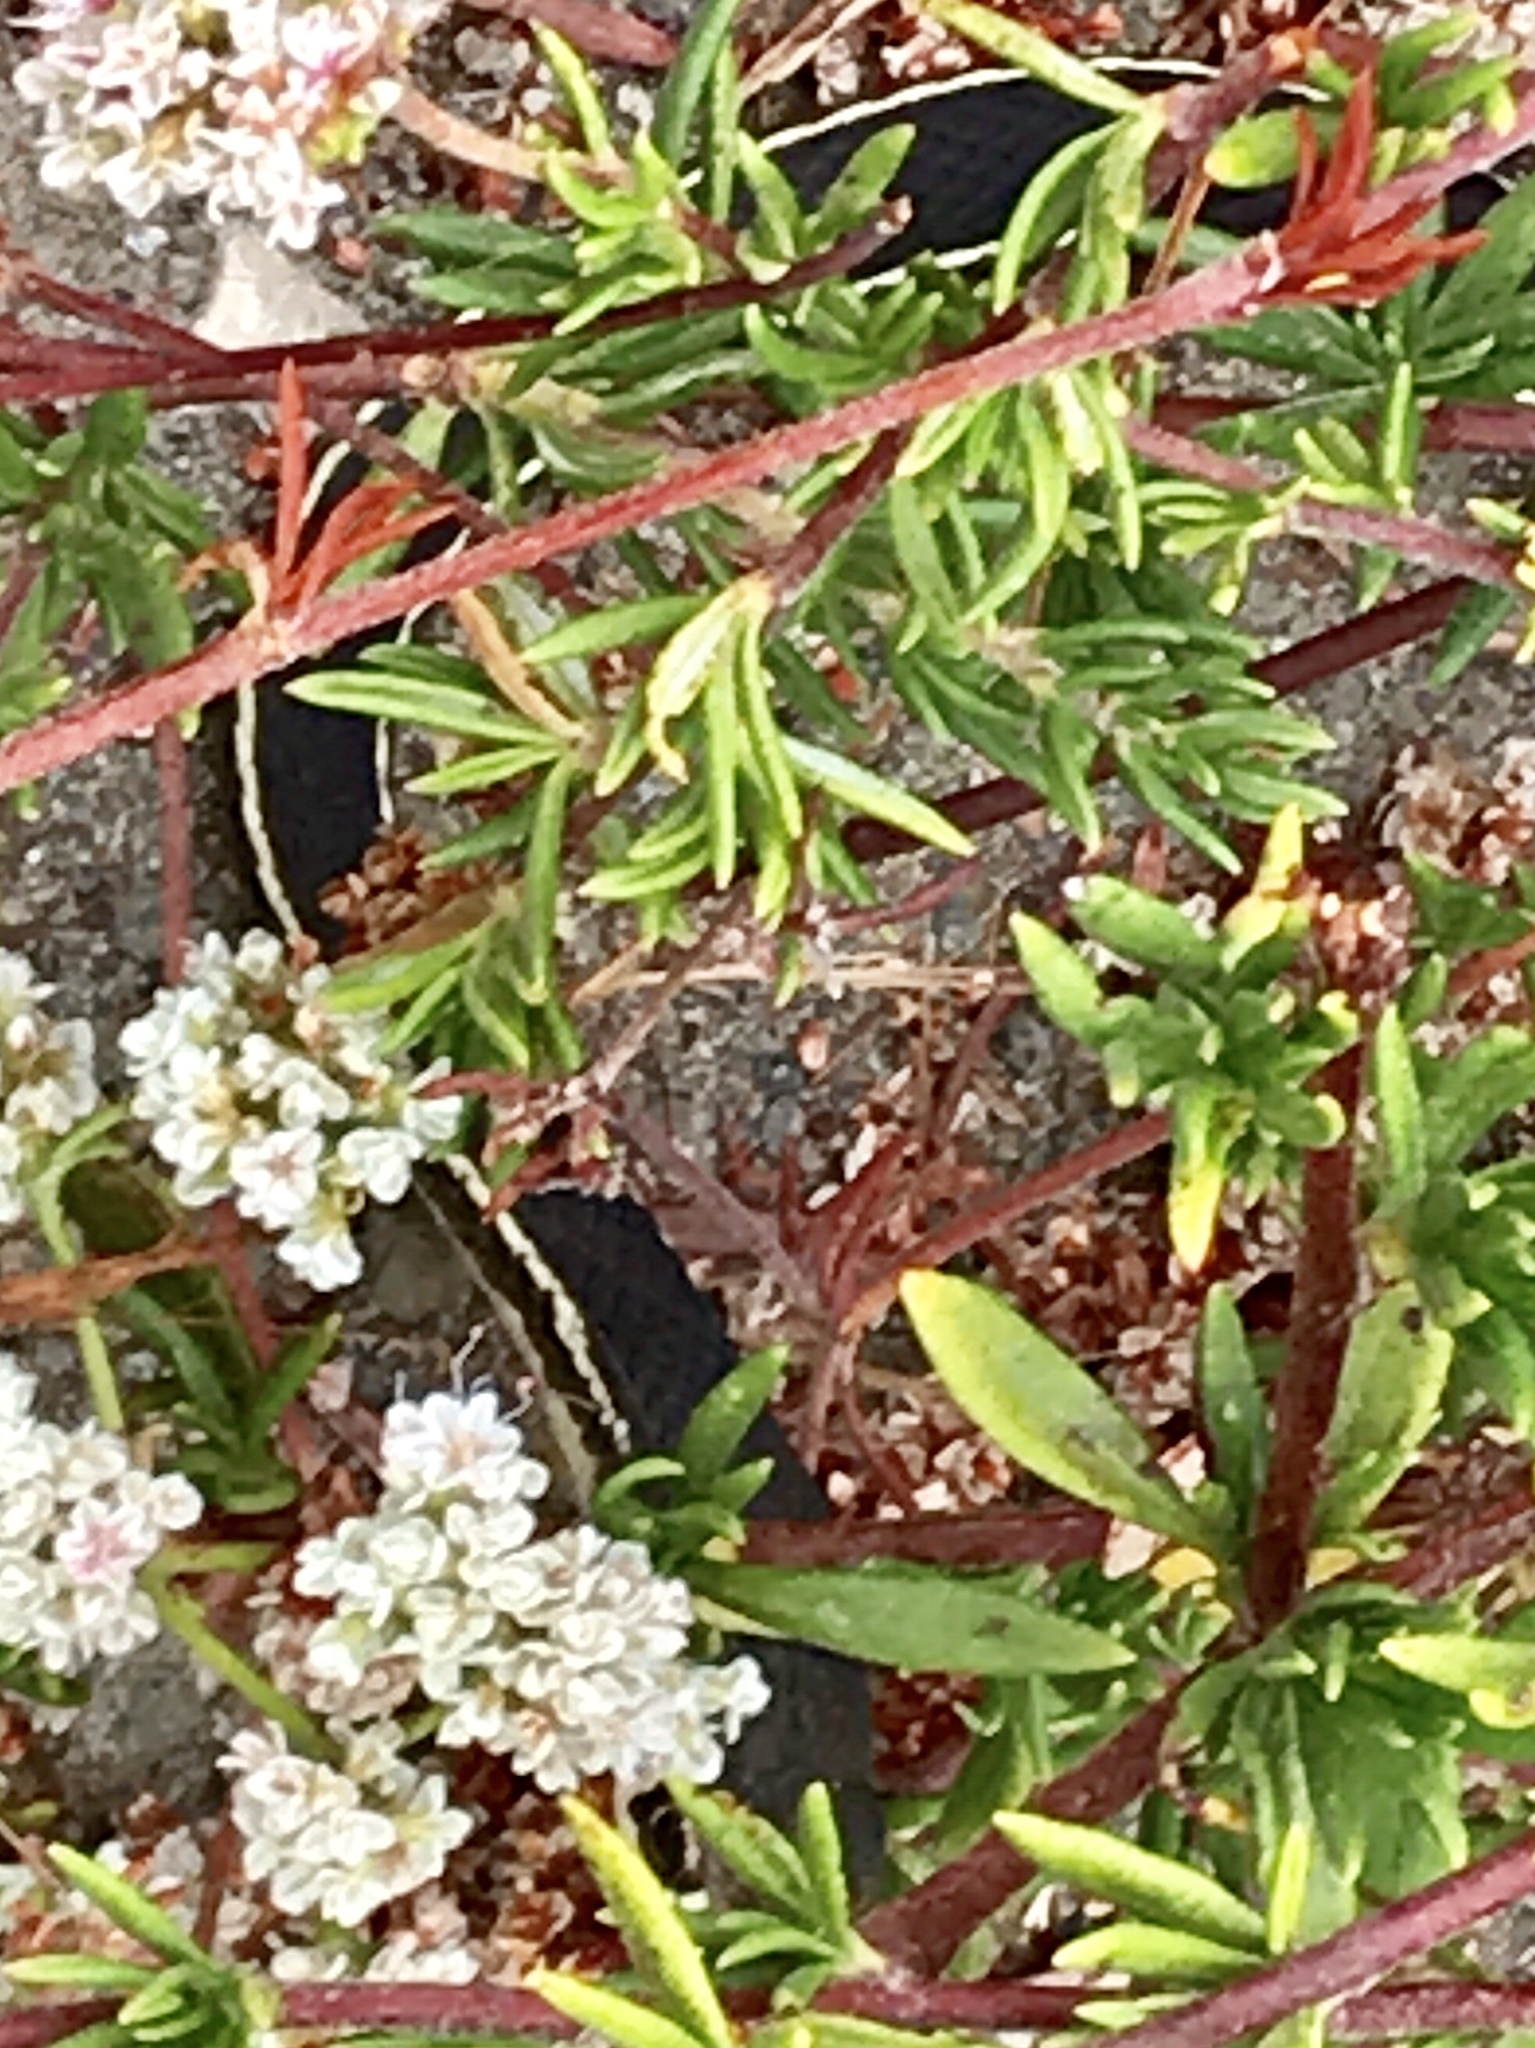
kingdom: Animalia
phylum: Chordata
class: Squamata
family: Colubridae
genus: Masticophis
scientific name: Masticophis lateralis
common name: Striped racer
